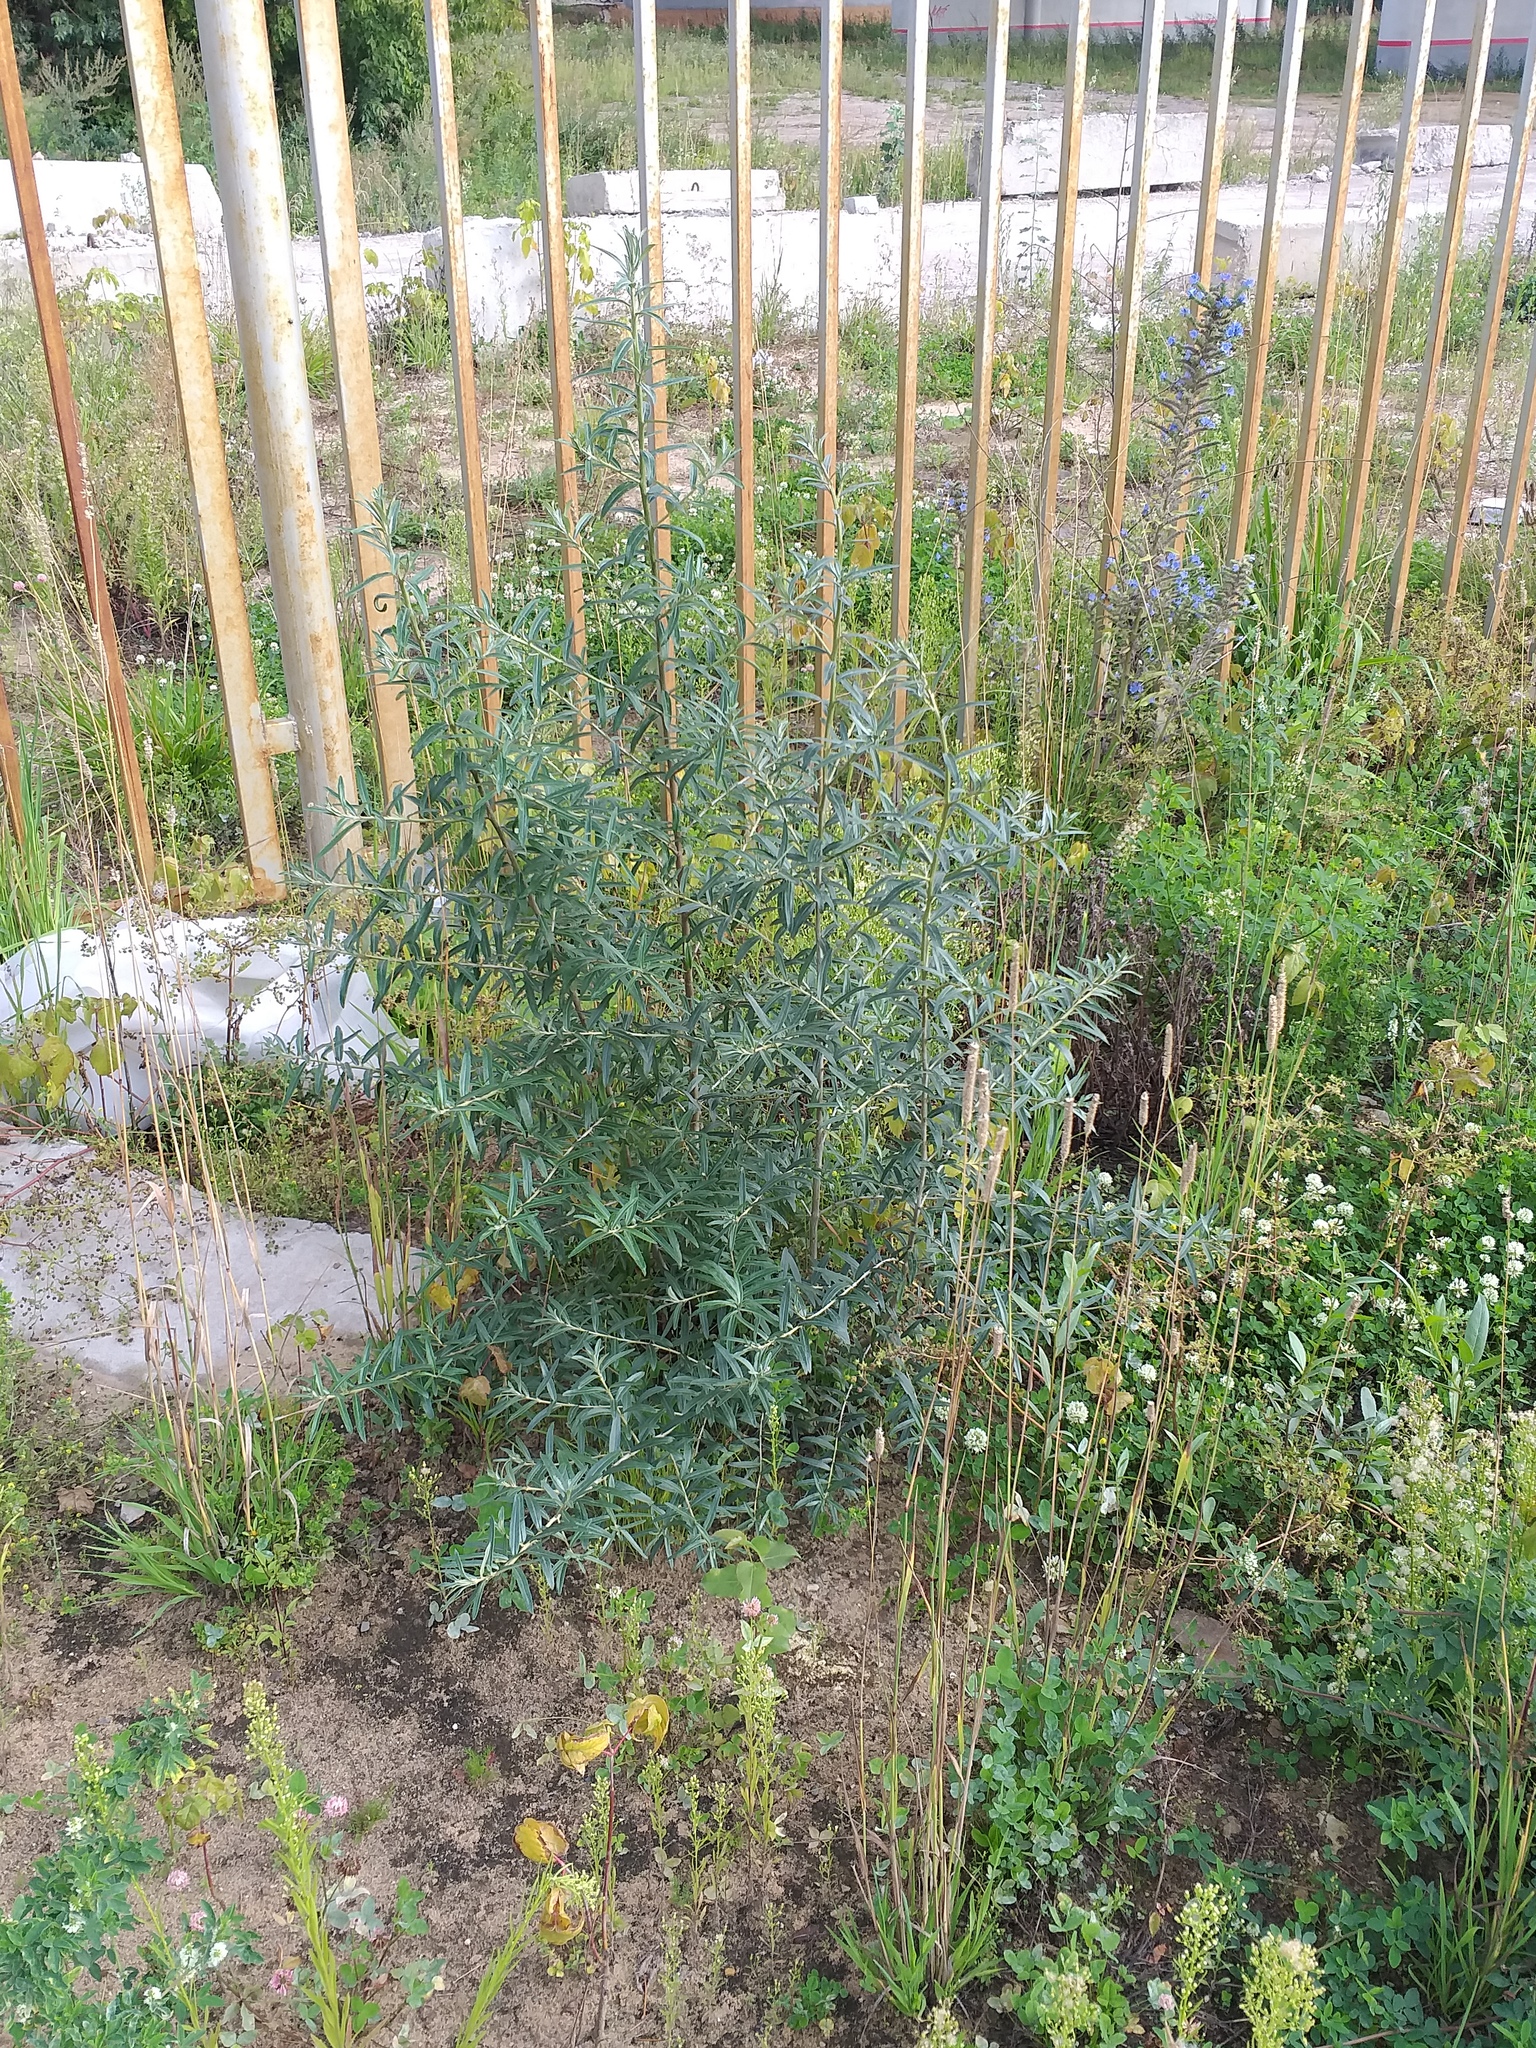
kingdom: Plantae
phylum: Tracheophyta
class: Magnoliopsida
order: Rosales
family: Elaeagnaceae
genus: Hippophae
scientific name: Hippophae rhamnoides
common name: Sea-buckthorn
